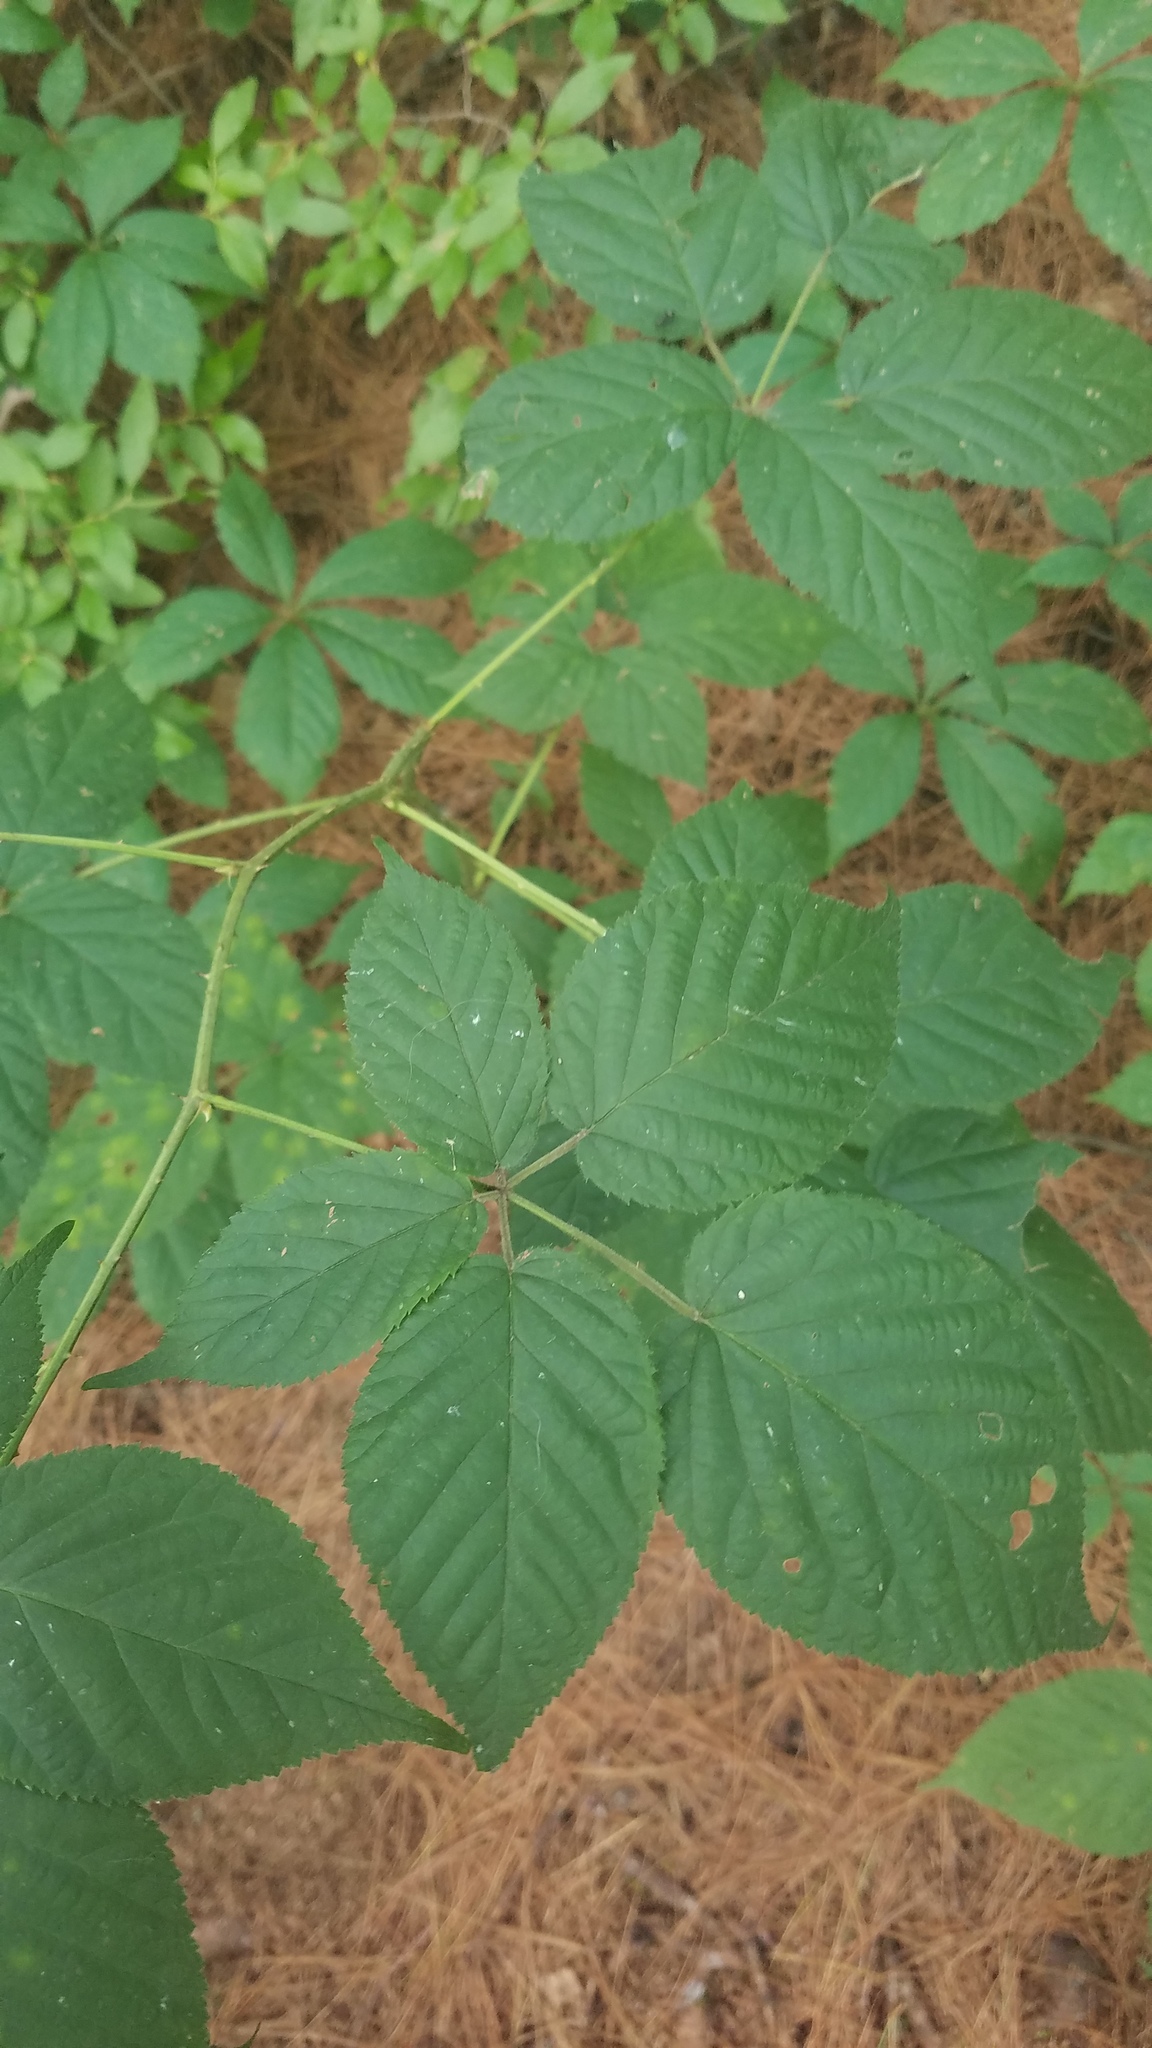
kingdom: Plantae
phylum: Tracheophyta
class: Magnoliopsida
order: Rosales
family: Rosaceae
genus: Rubus
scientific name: Rubus allegheniensis
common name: Allegheny blackberry
